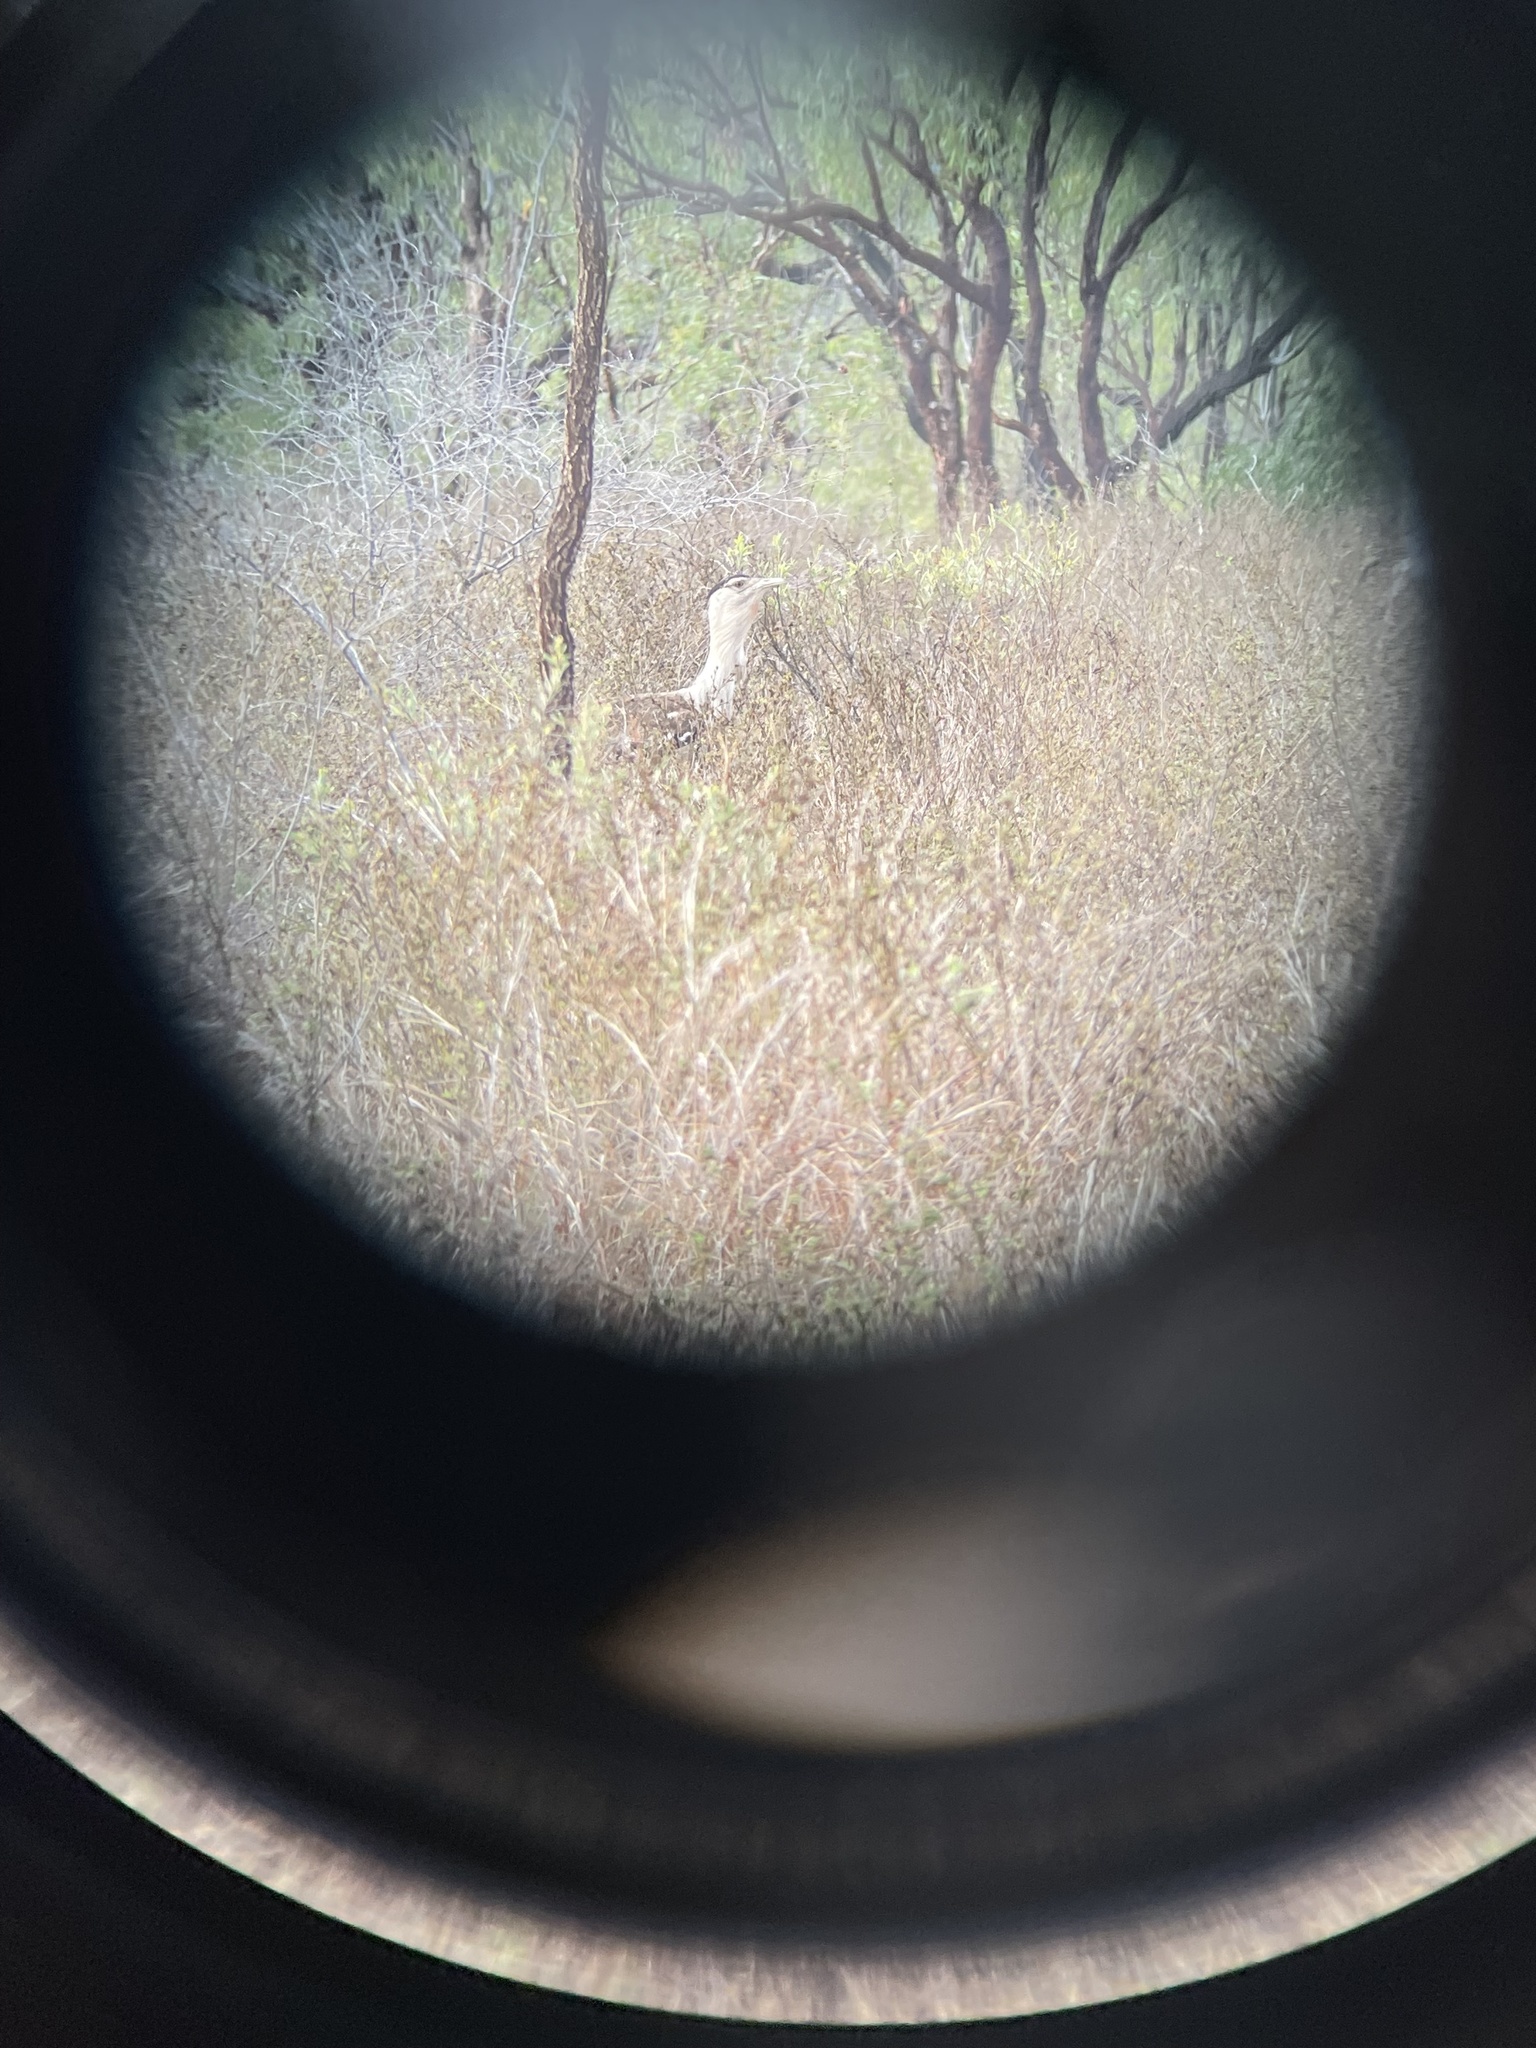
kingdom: Animalia
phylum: Chordata
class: Aves
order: Otidiformes
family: Otididae
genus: Ardeotis
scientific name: Ardeotis australis
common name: Australian bustard
